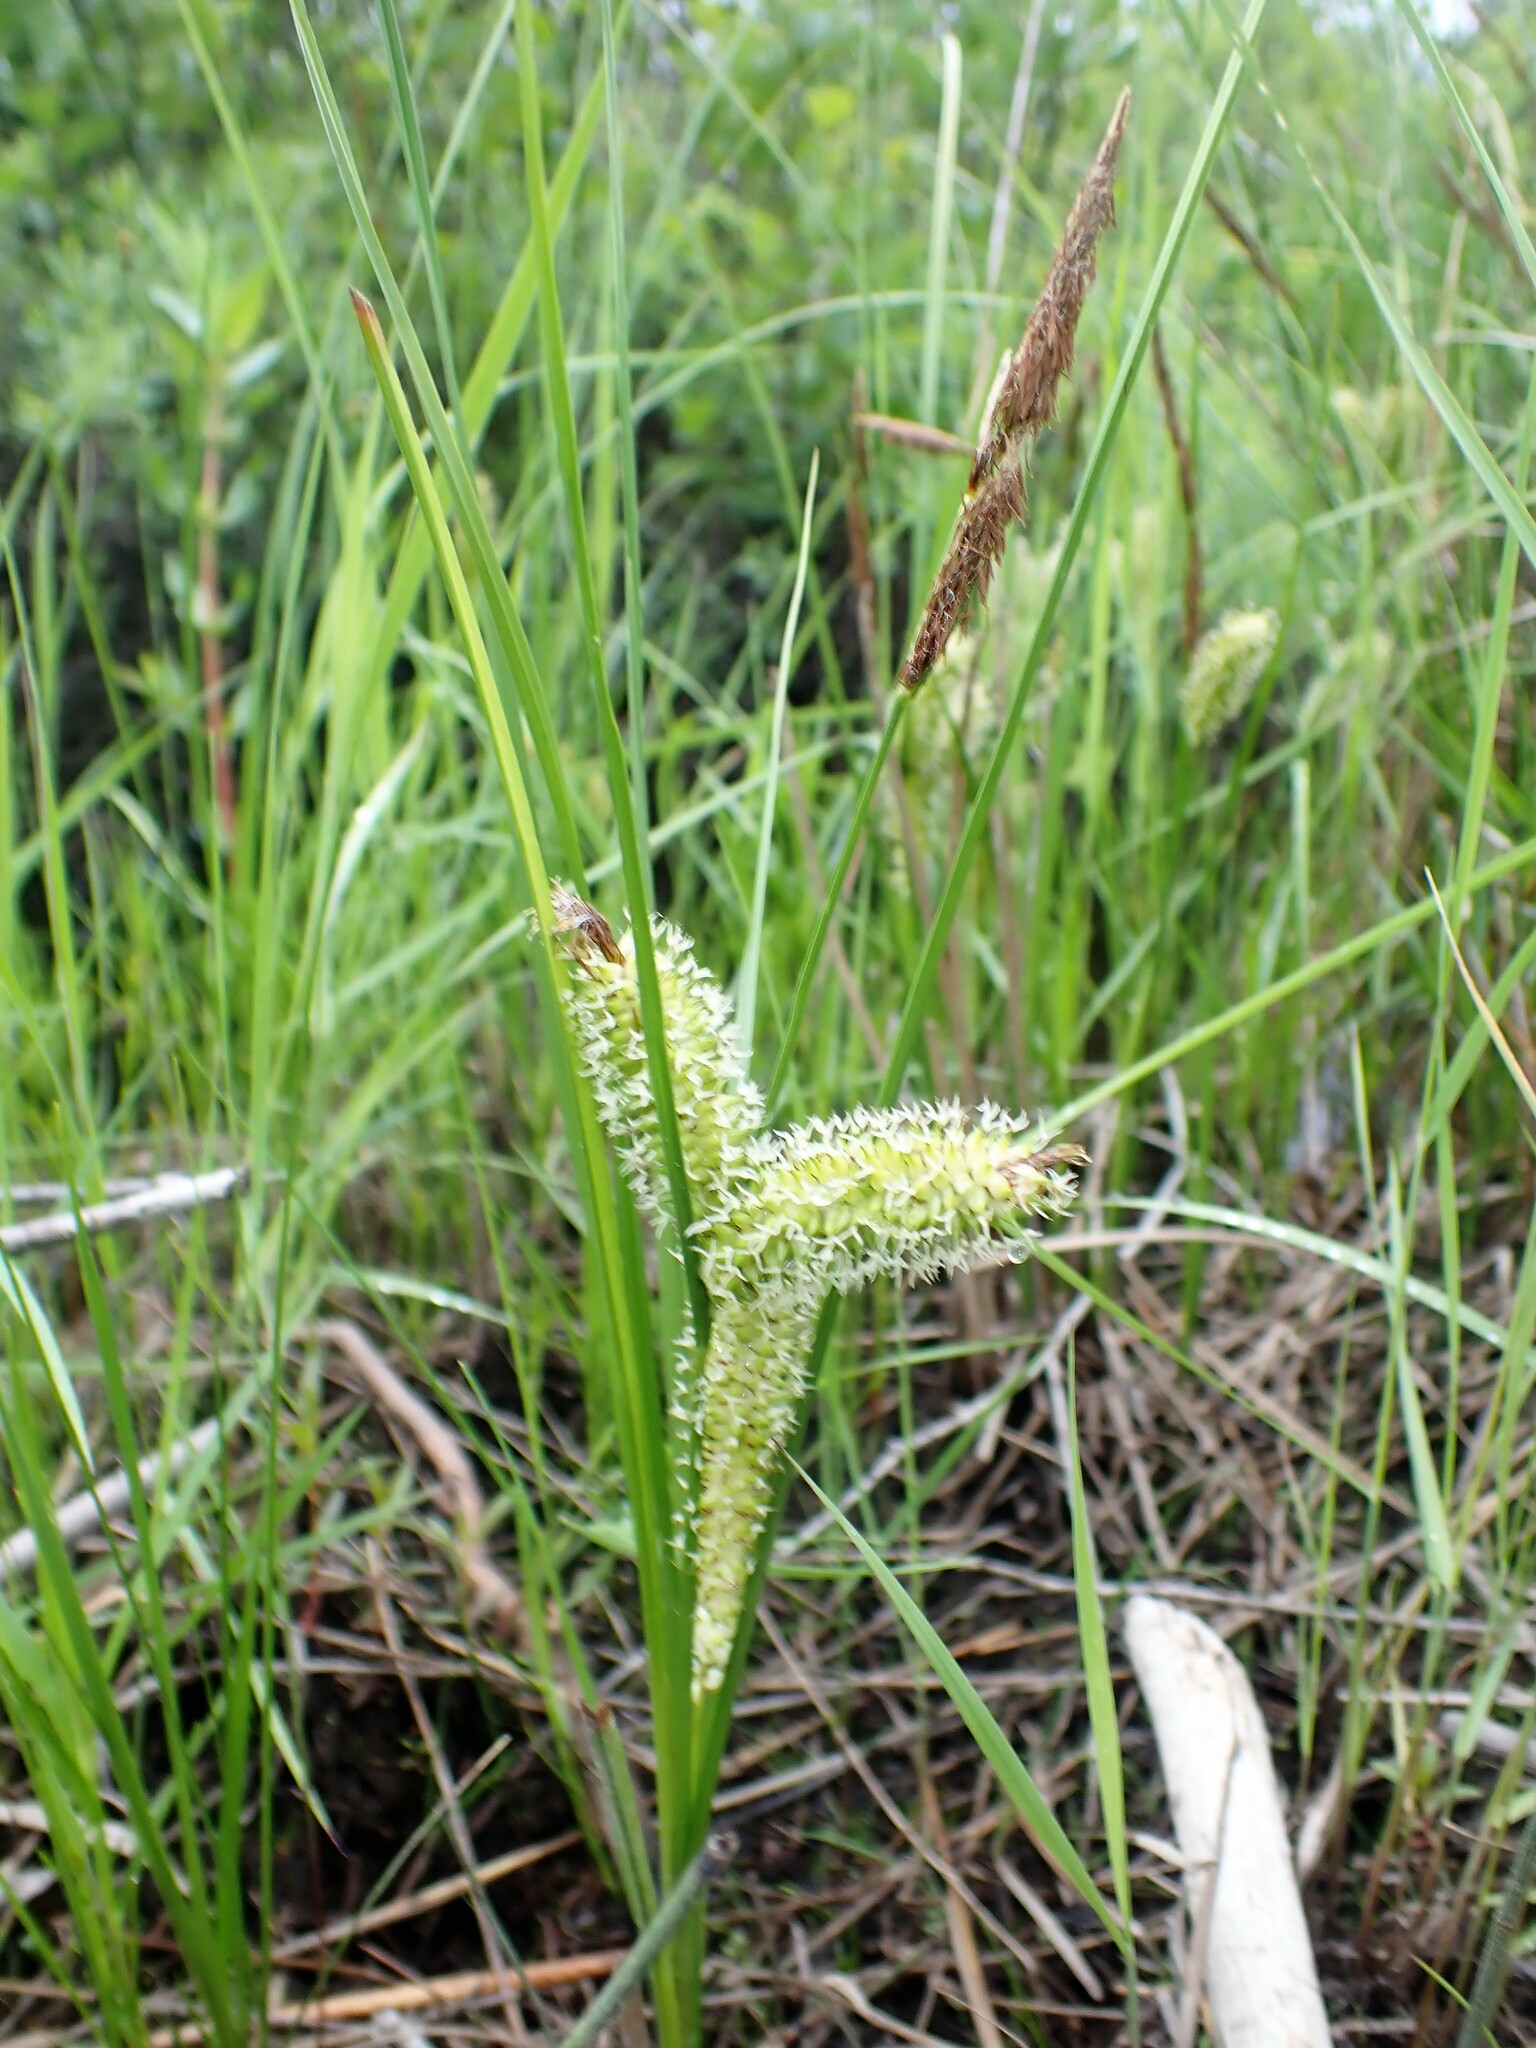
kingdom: Plantae
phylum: Tracheophyta
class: Liliopsida
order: Poales
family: Cyperaceae
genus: Carex
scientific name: Carex utriculata
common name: Beaked sedge
